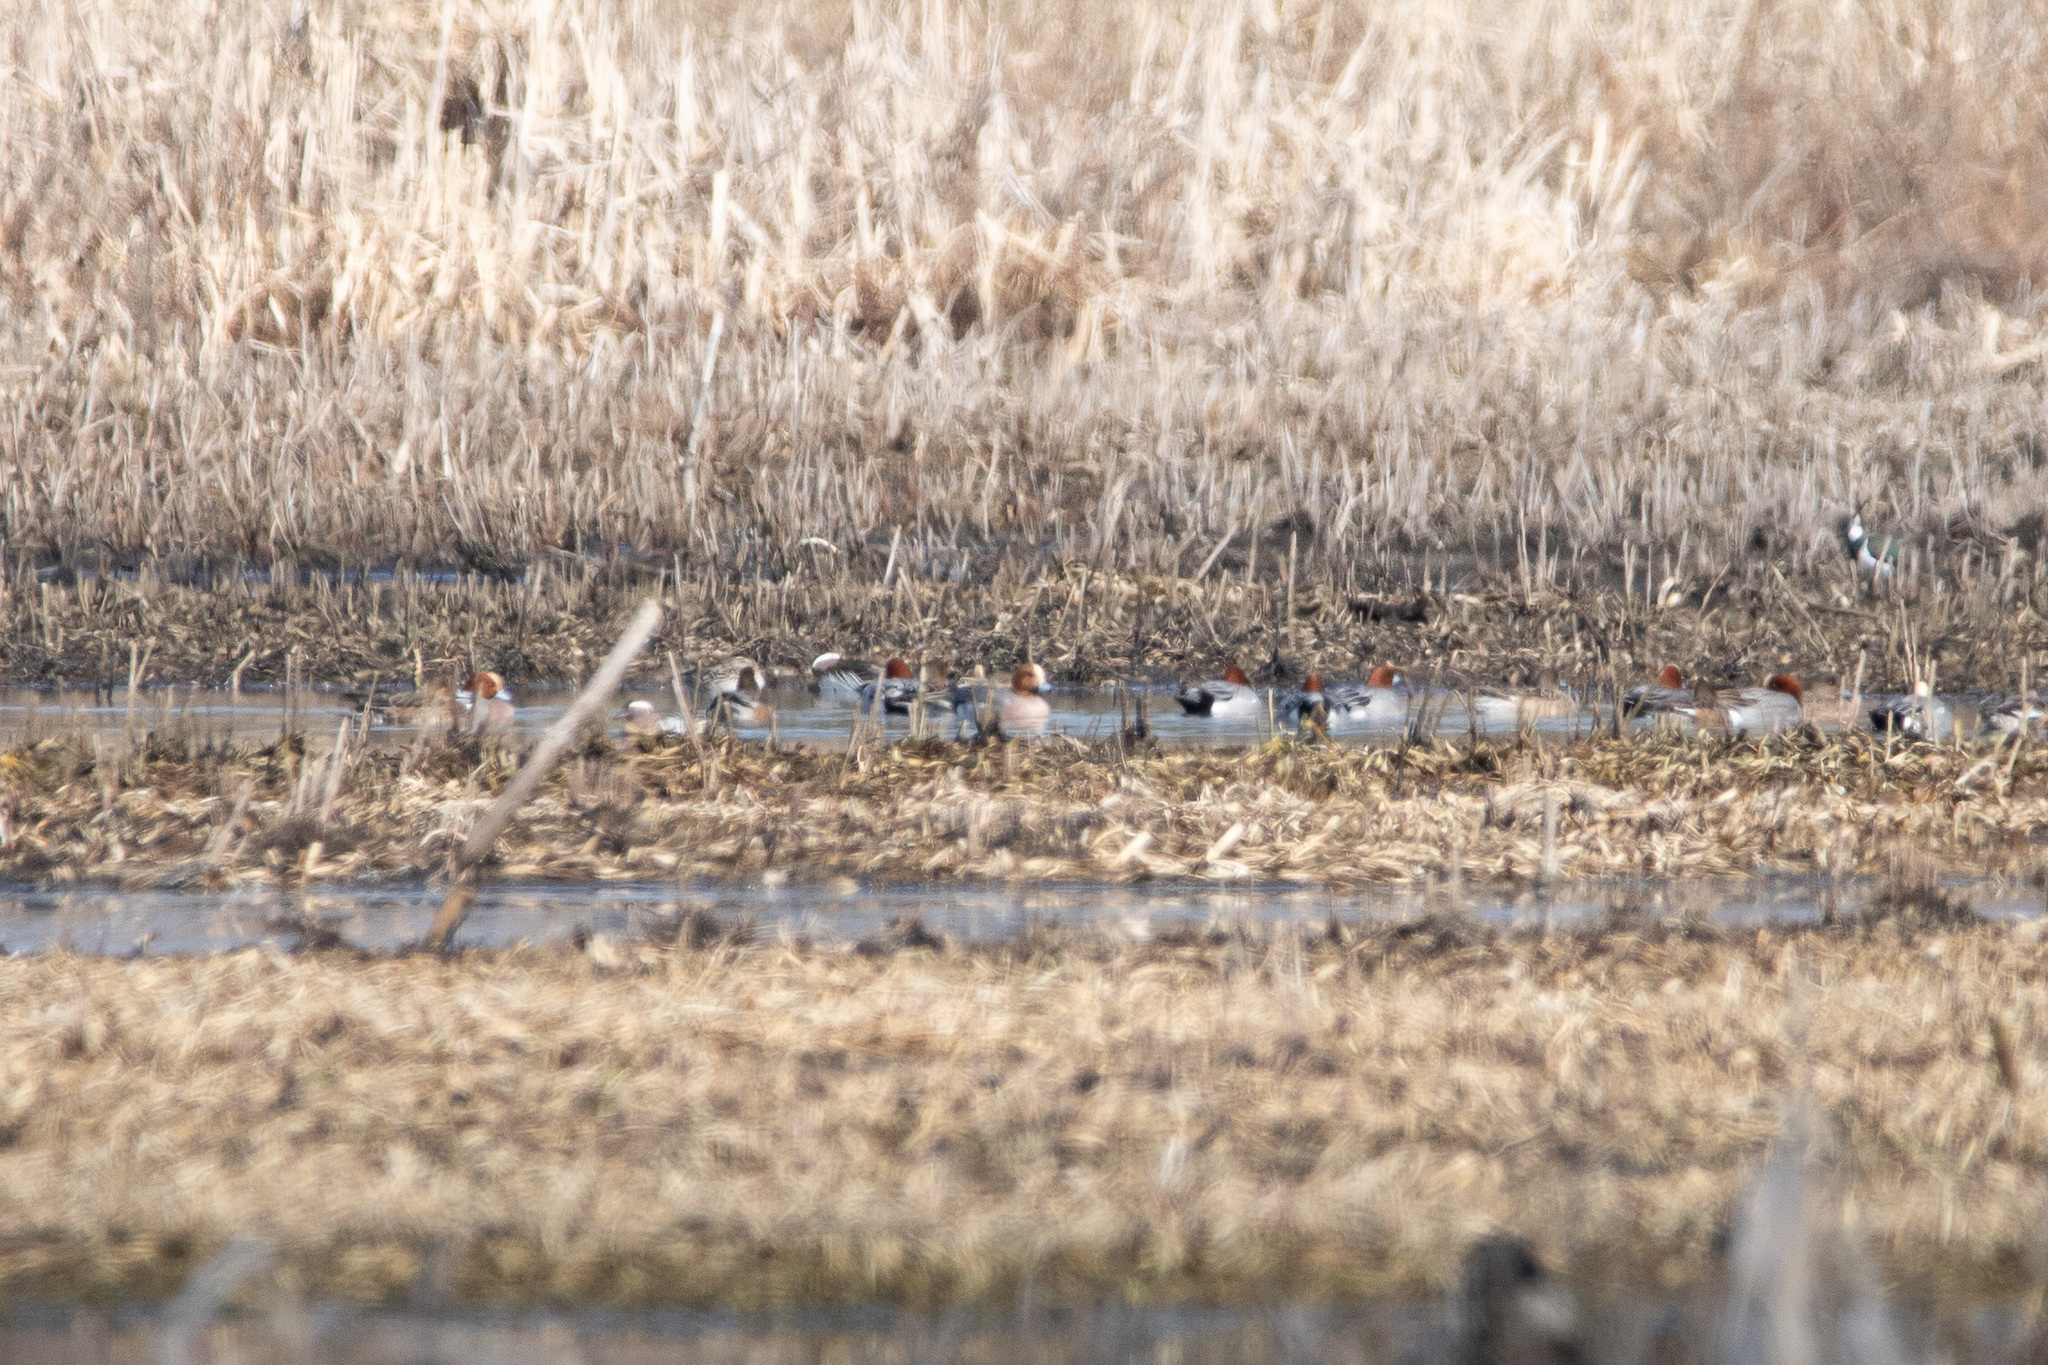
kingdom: Animalia
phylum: Chordata
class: Aves
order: Anseriformes
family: Anatidae
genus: Mareca
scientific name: Mareca penelope
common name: Eurasian wigeon
